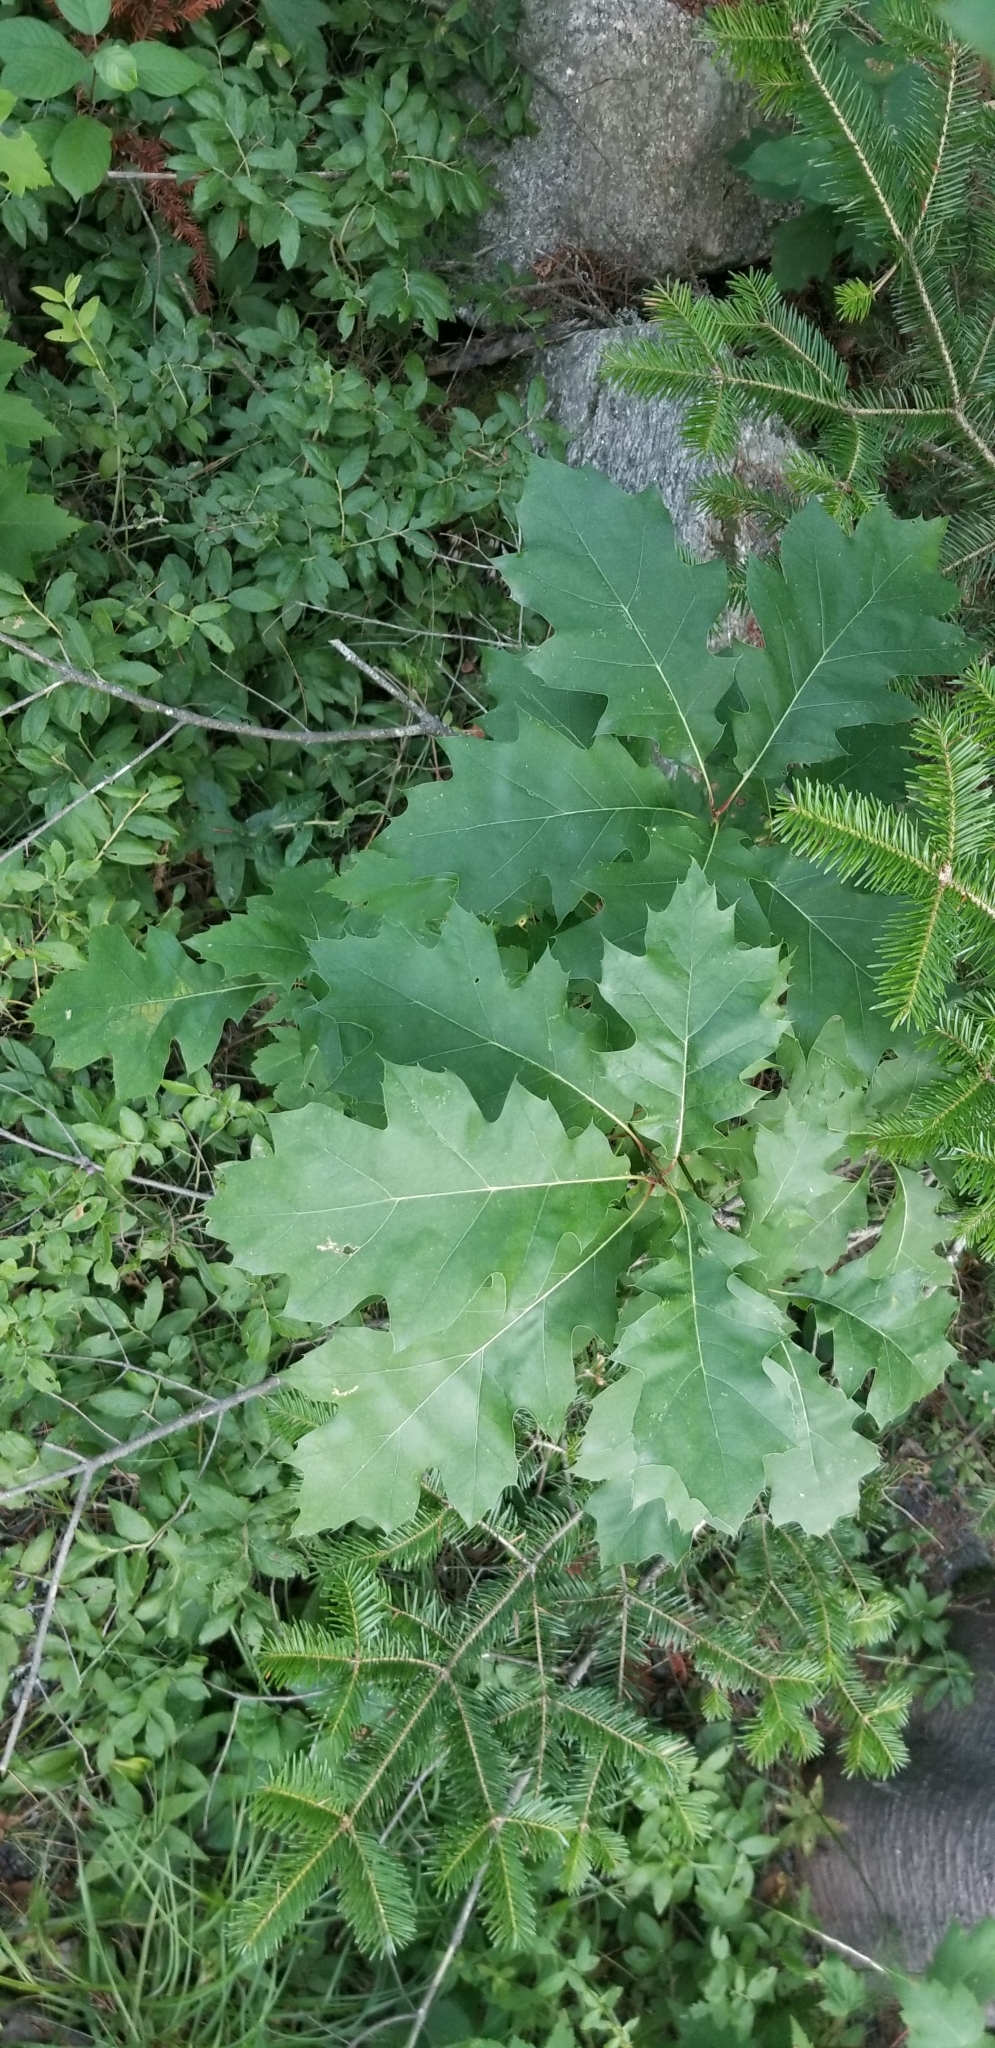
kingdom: Plantae
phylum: Tracheophyta
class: Magnoliopsida
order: Fagales
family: Fagaceae
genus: Quercus
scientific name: Quercus rubra
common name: Red oak
